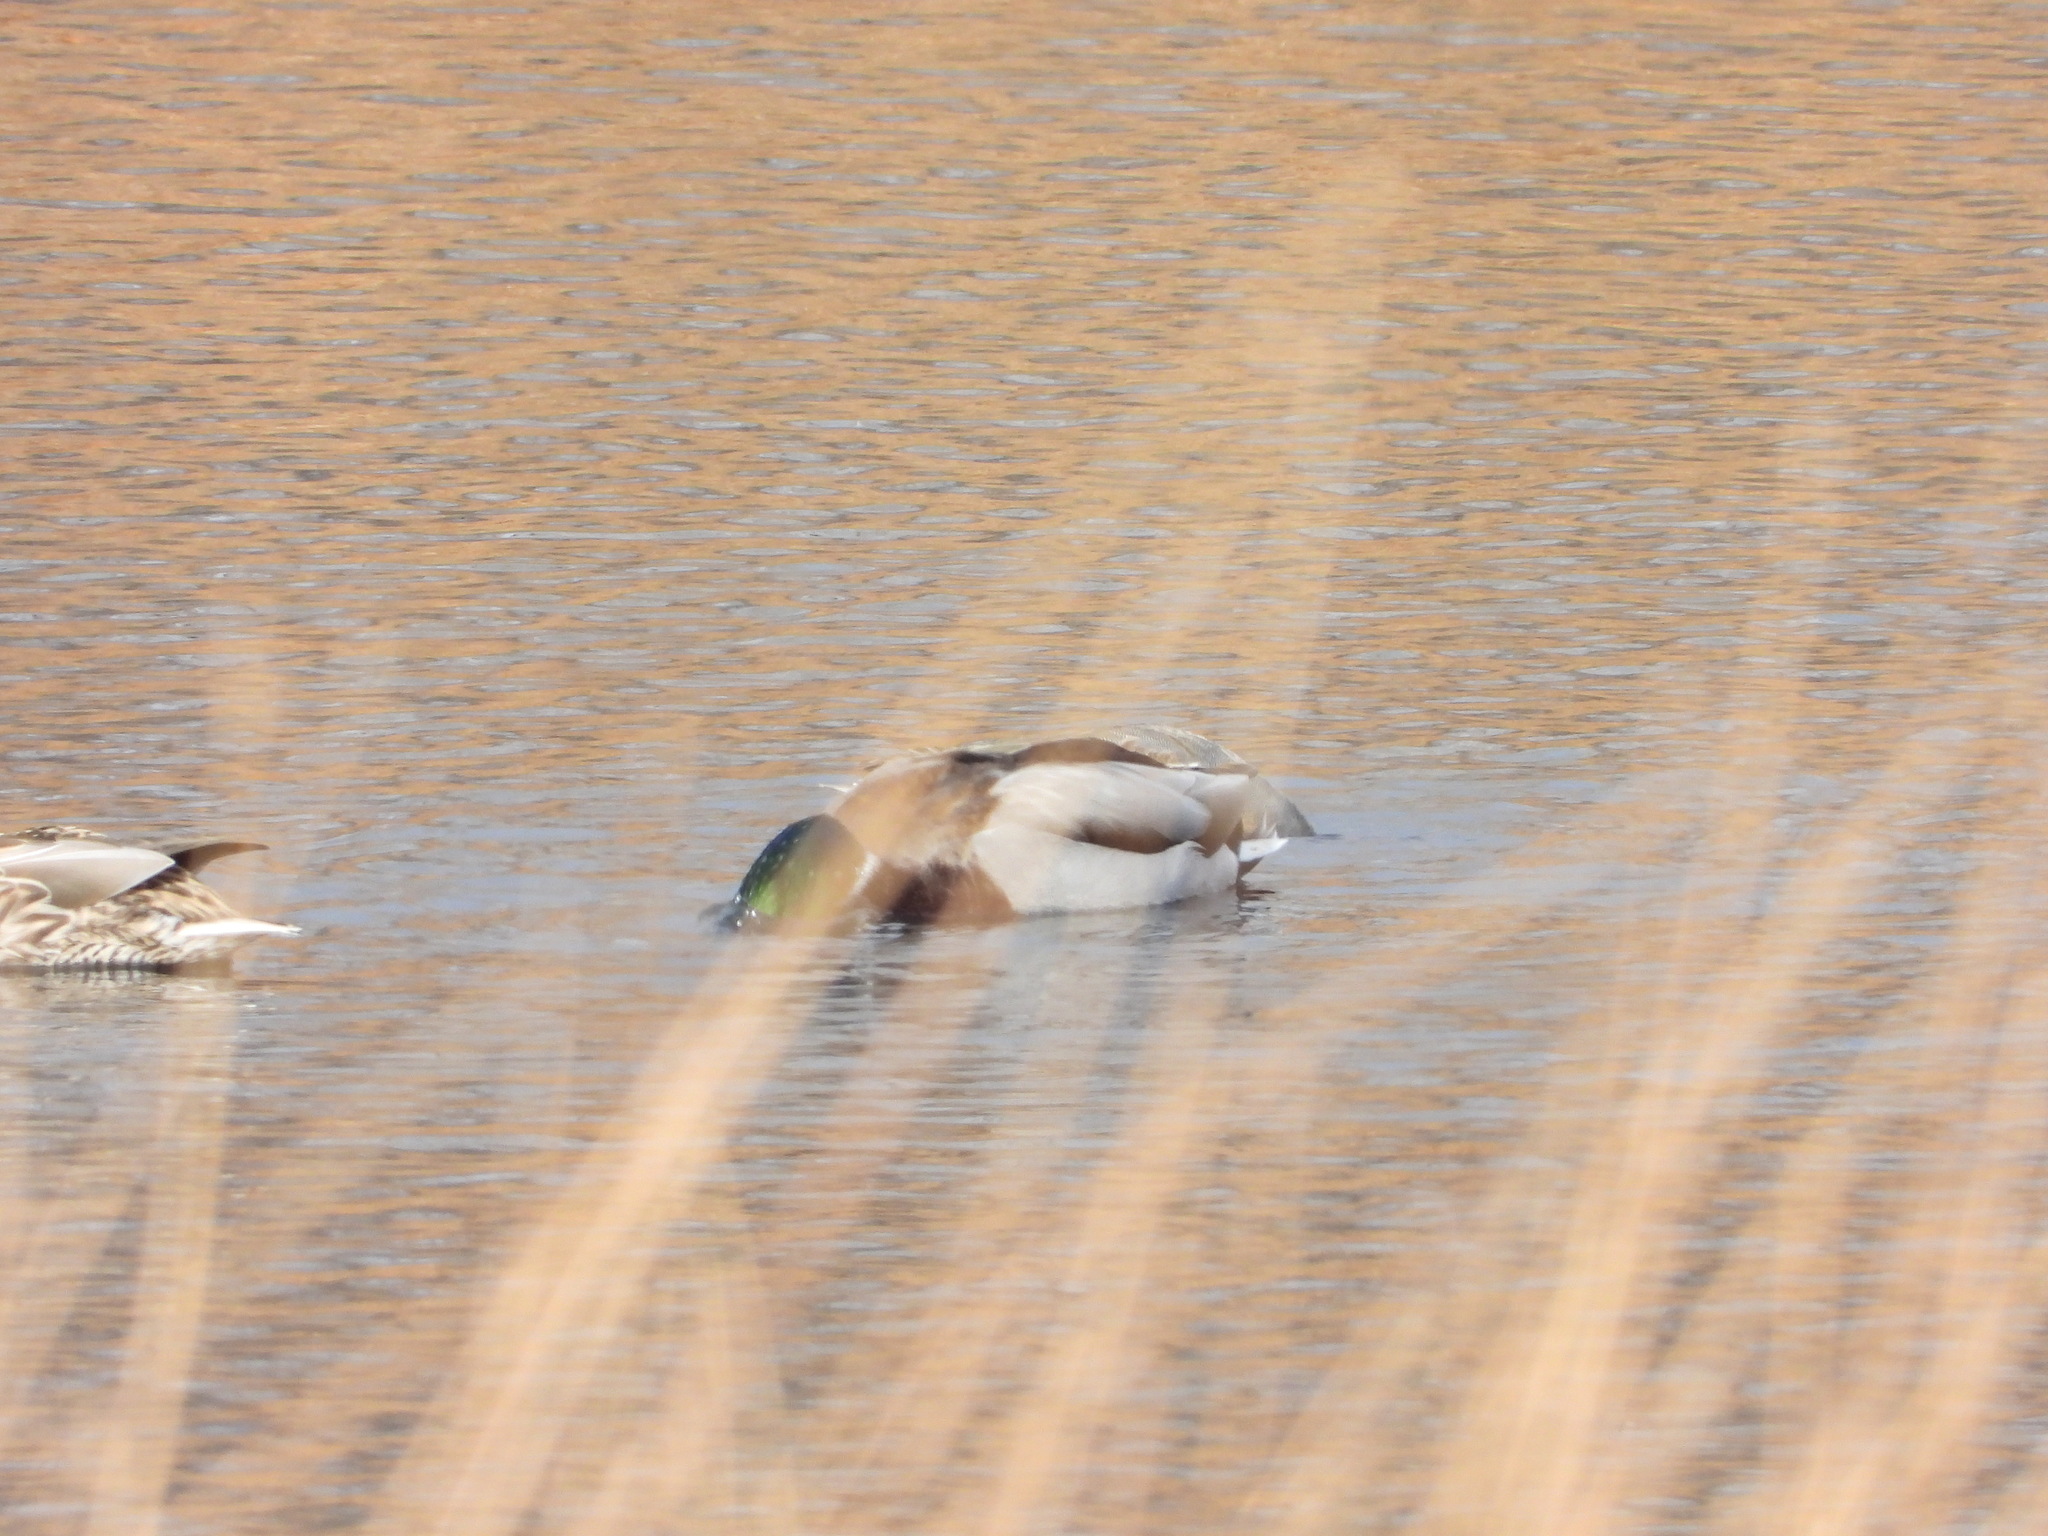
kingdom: Animalia
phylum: Chordata
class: Aves
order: Anseriformes
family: Anatidae
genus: Anas
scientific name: Anas platyrhynchos
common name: Mallard
